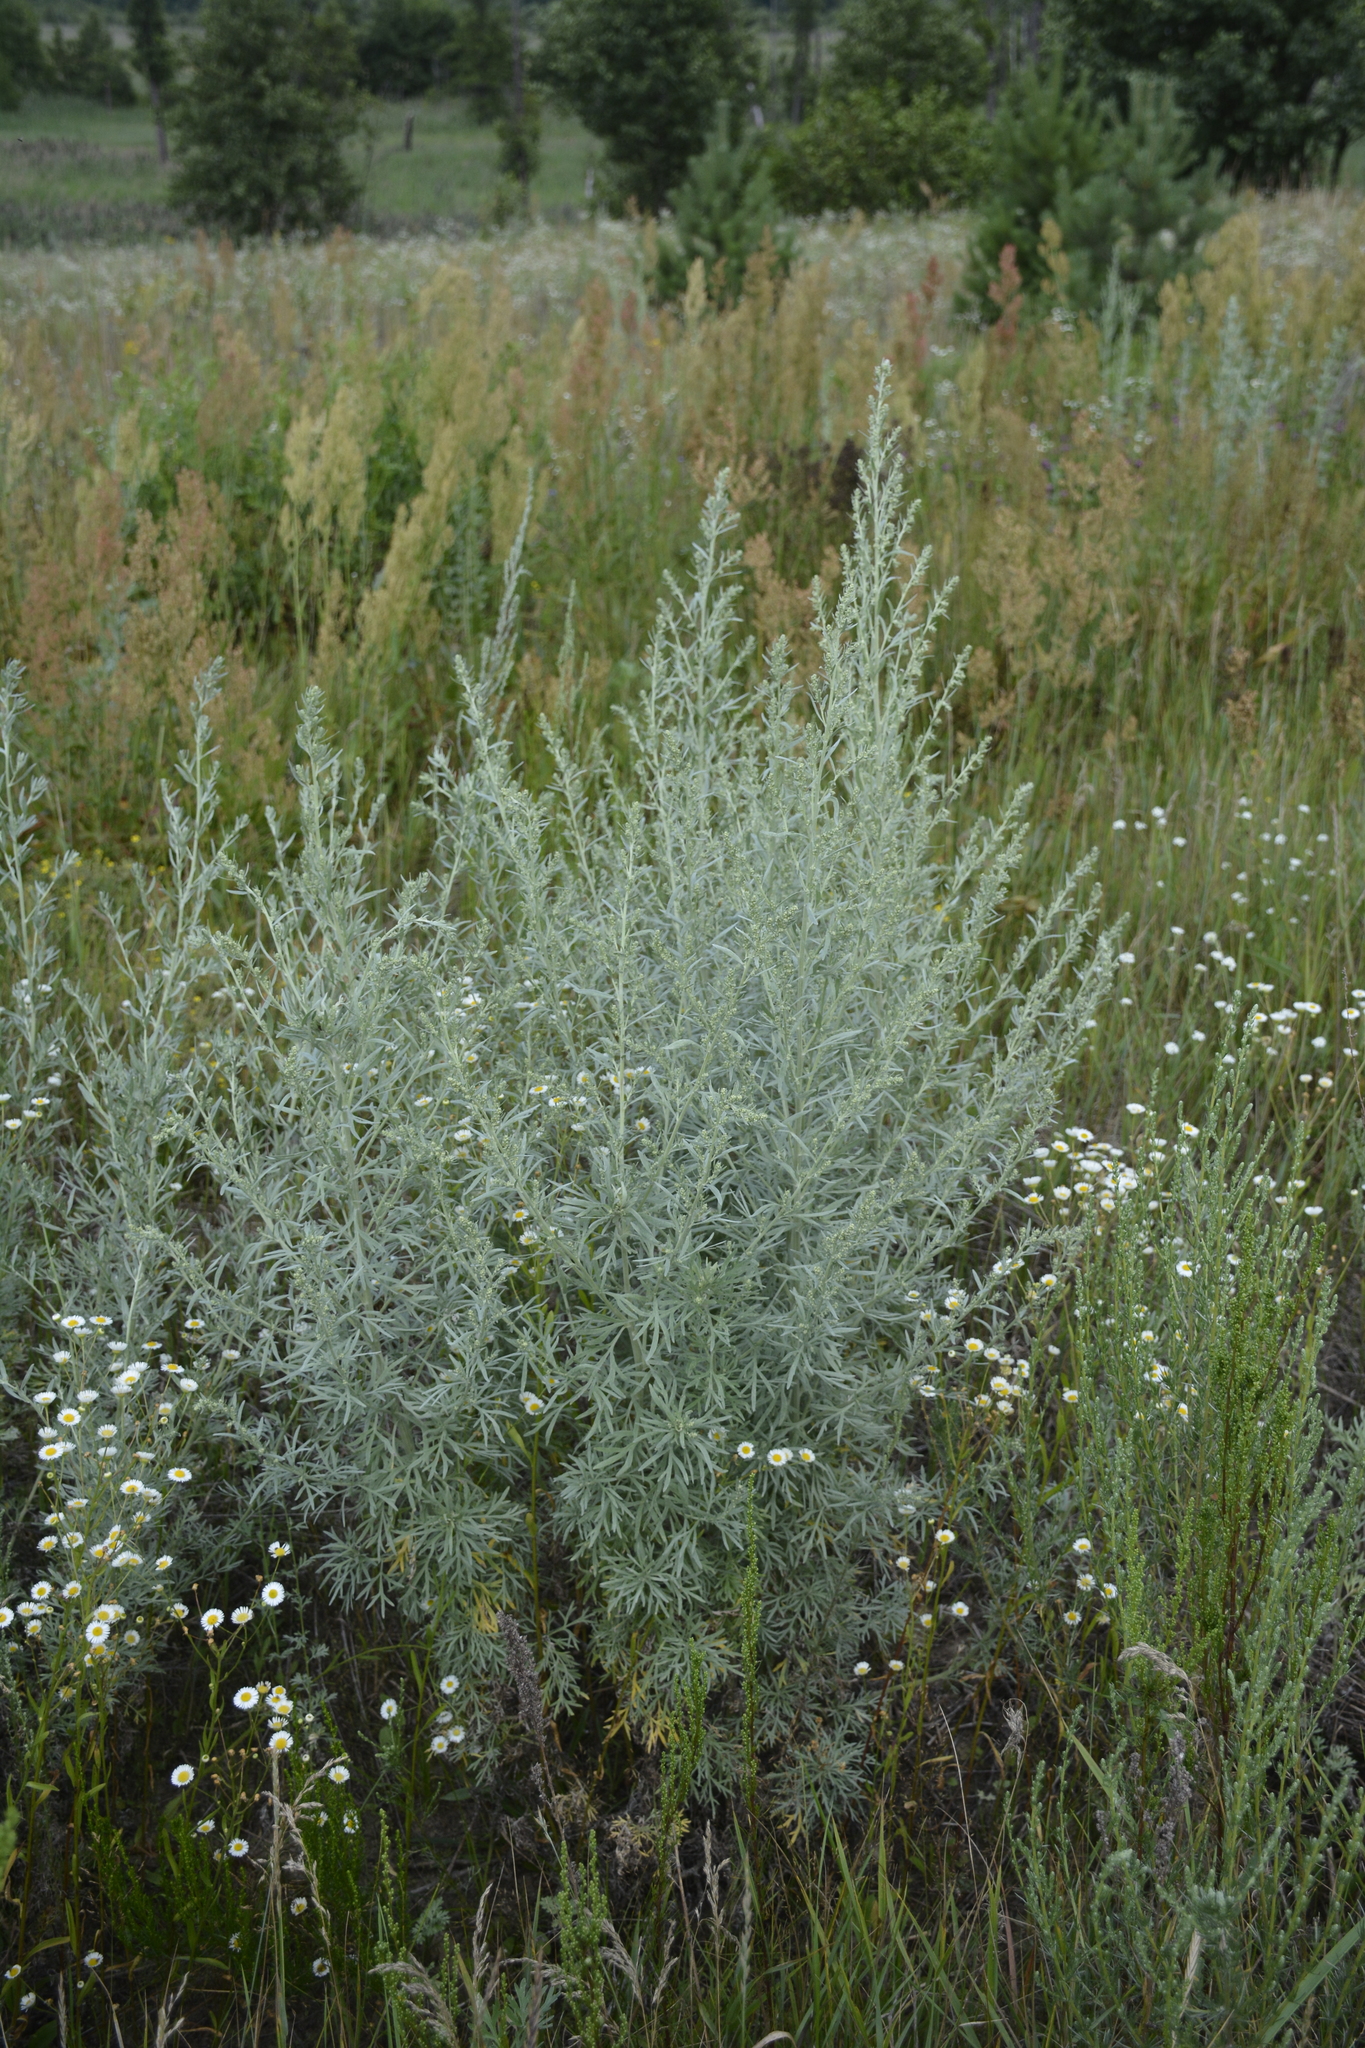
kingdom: Plantae
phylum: Tracheophyta
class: Magnoliopsida
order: Asterales
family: Asteraceae
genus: Artemisia
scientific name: Artemisia absinthium
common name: Wormwood
